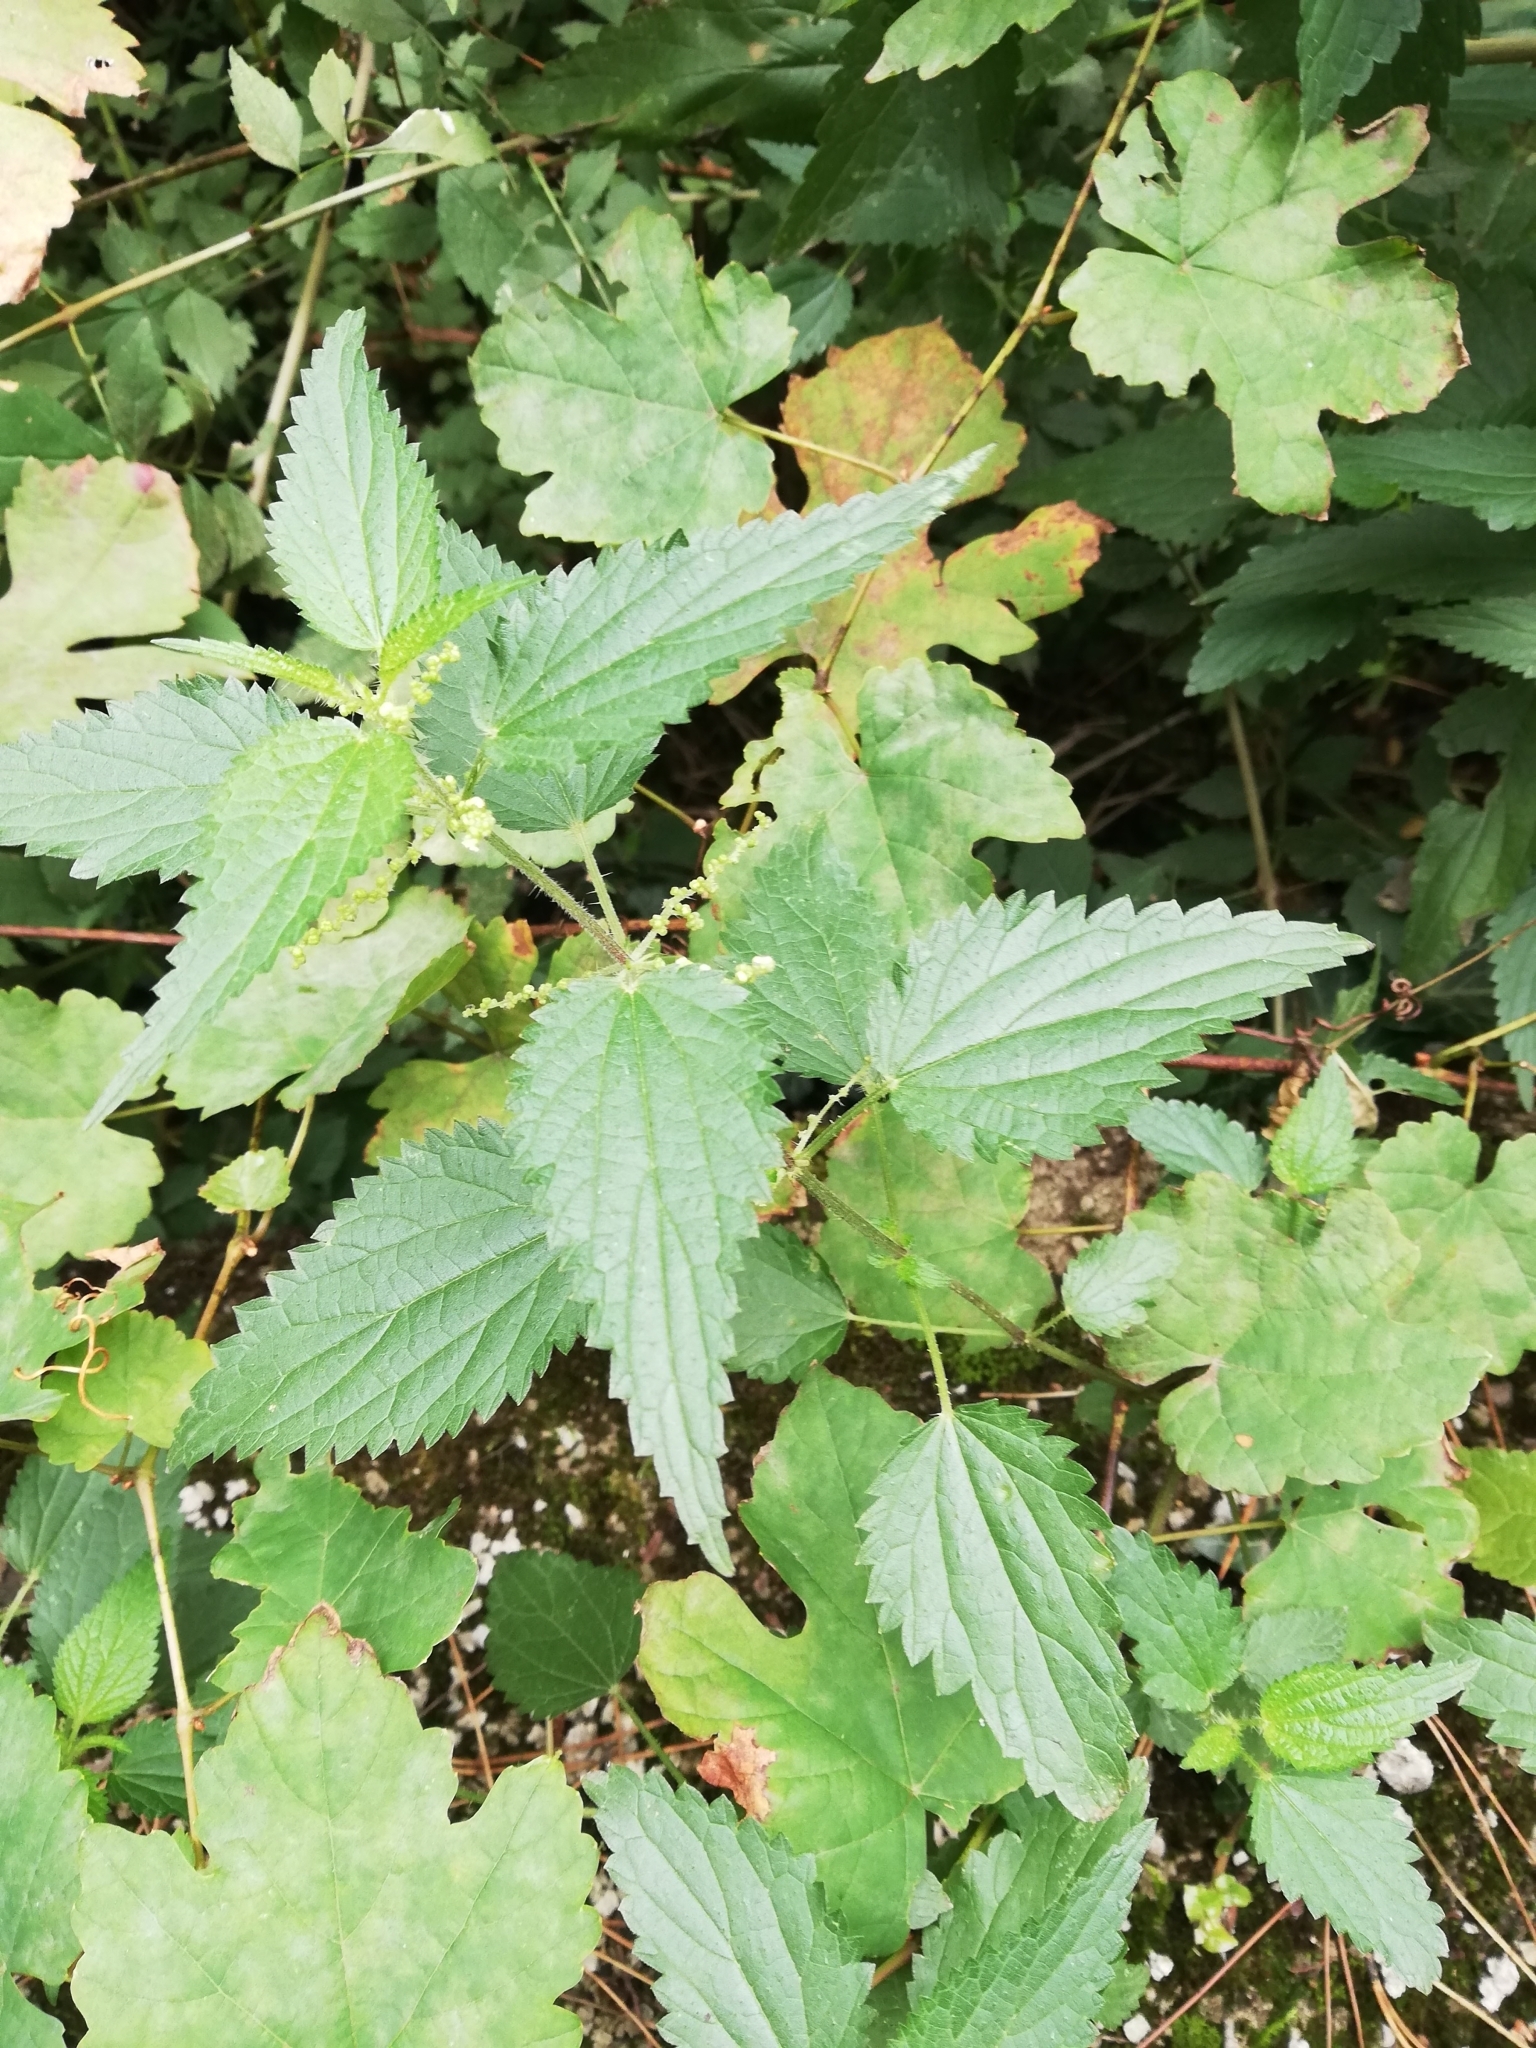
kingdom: Plantae
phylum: Tracheophyta
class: Magnoliopsida
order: Rosales
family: Urticaceae
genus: Urtica
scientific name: Urtica dioica
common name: Common nettle
